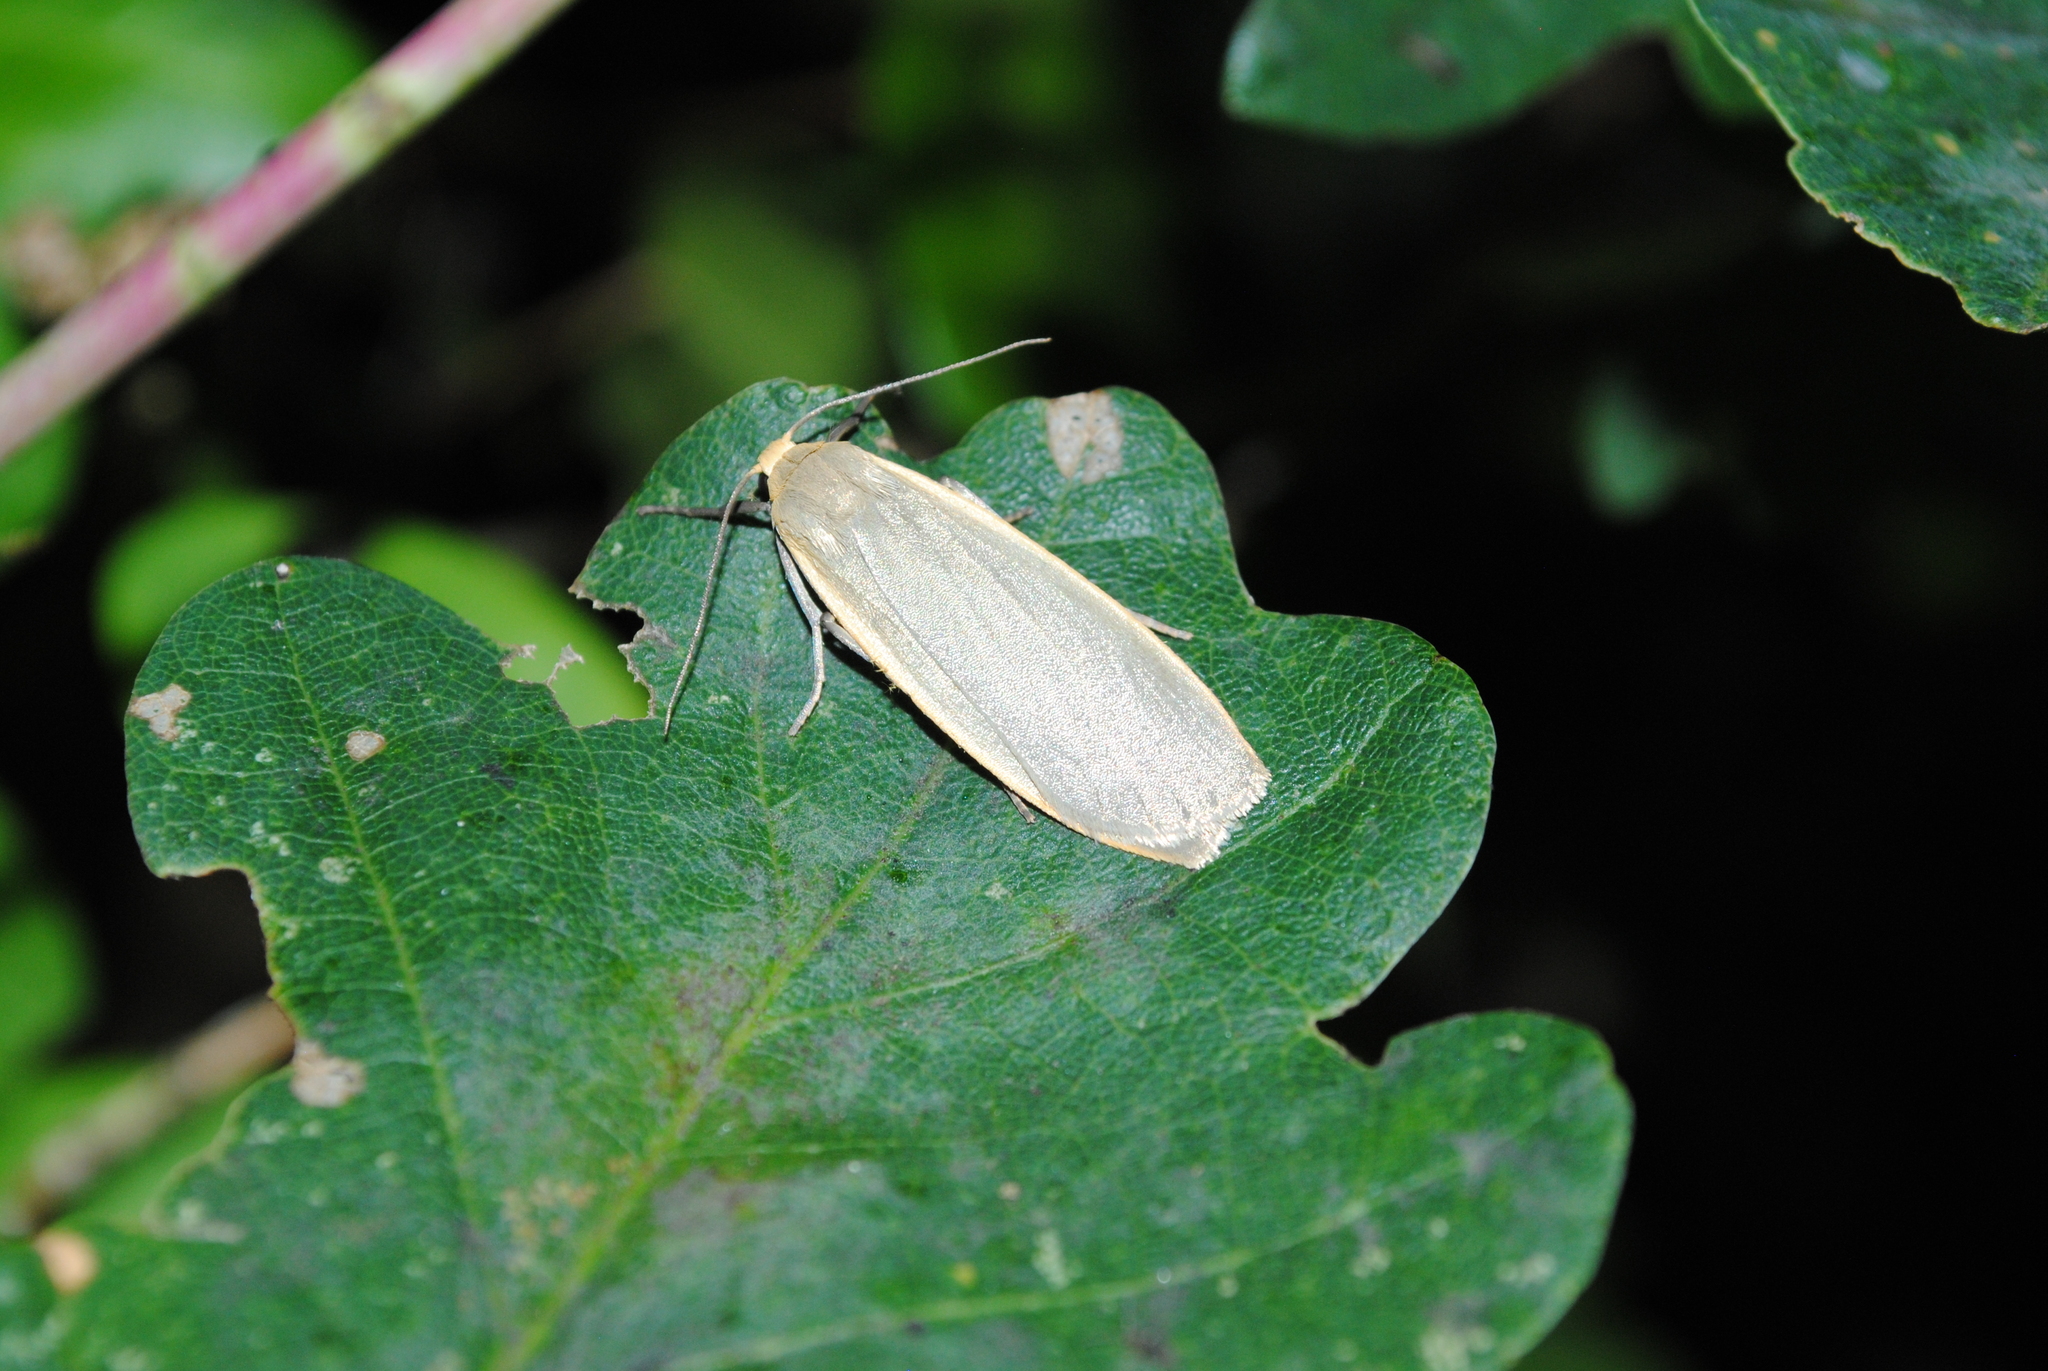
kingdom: Animalia
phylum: Arthropoda
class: Insecta
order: Lepidoptera
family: Erebidae
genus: Collita
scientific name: Collita griseola
